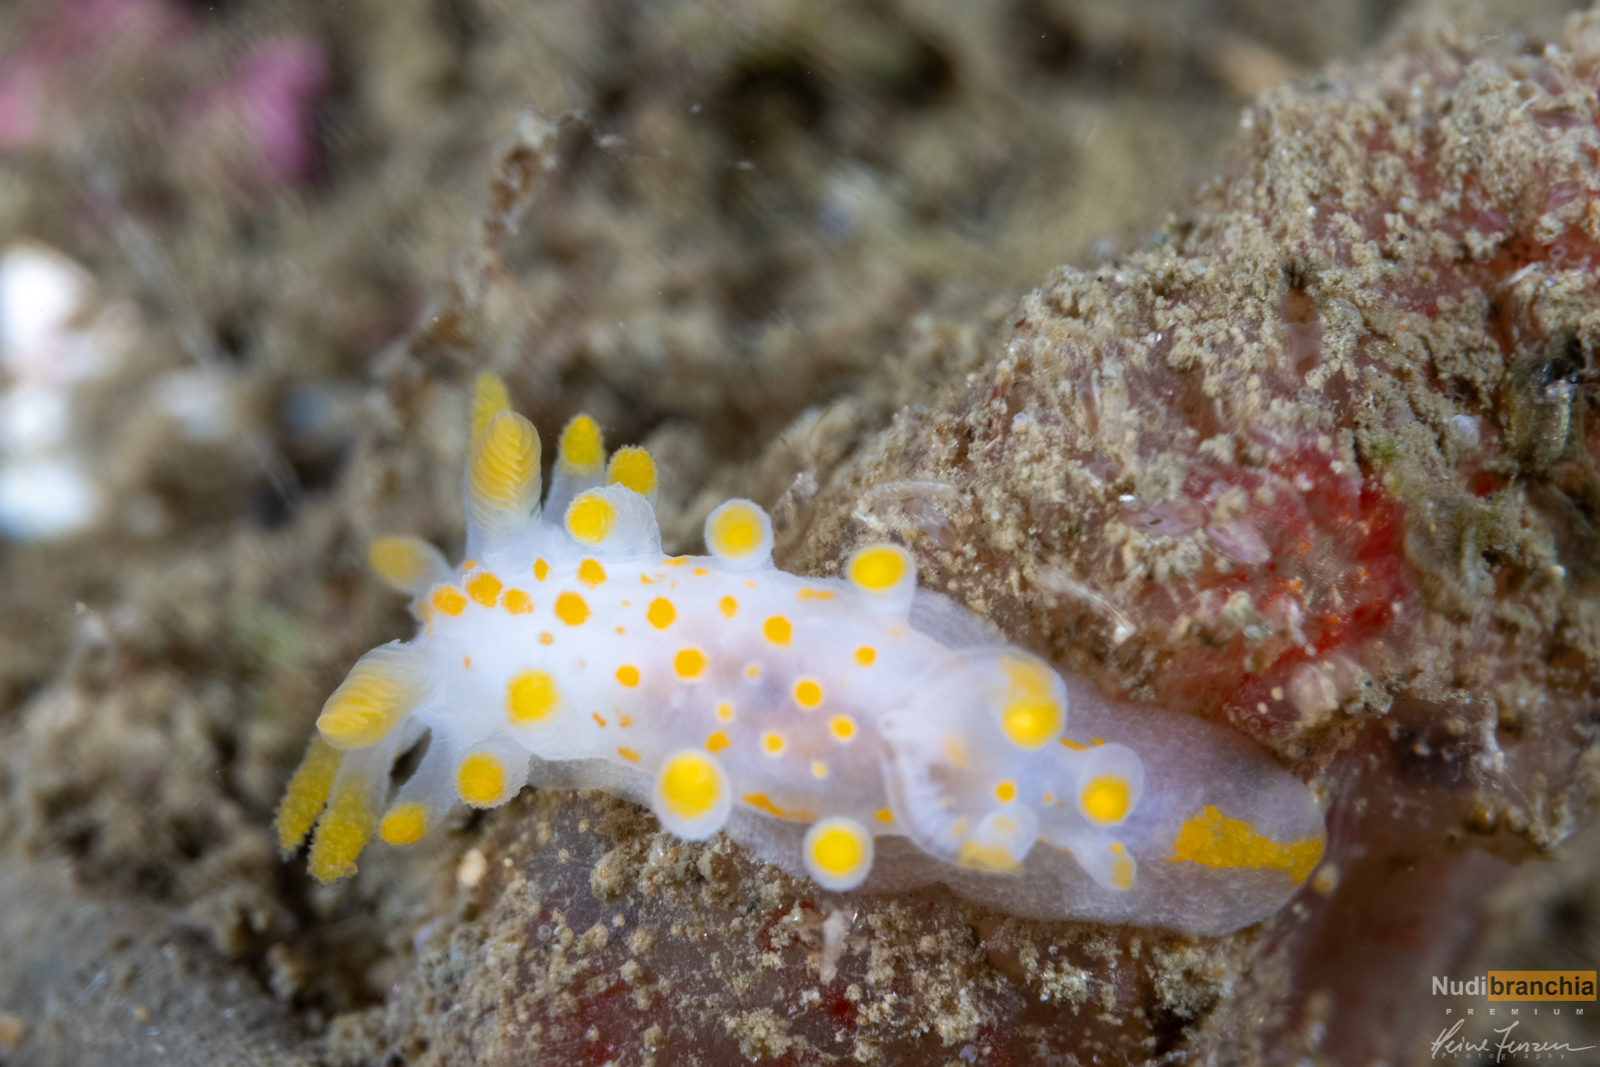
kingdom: Animalia
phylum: Mollusca
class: Gastropoda
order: Nudibranchia
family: Polyceridae
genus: Limacia
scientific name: Limacia clavigera
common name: Orange-clubbed sea slug
